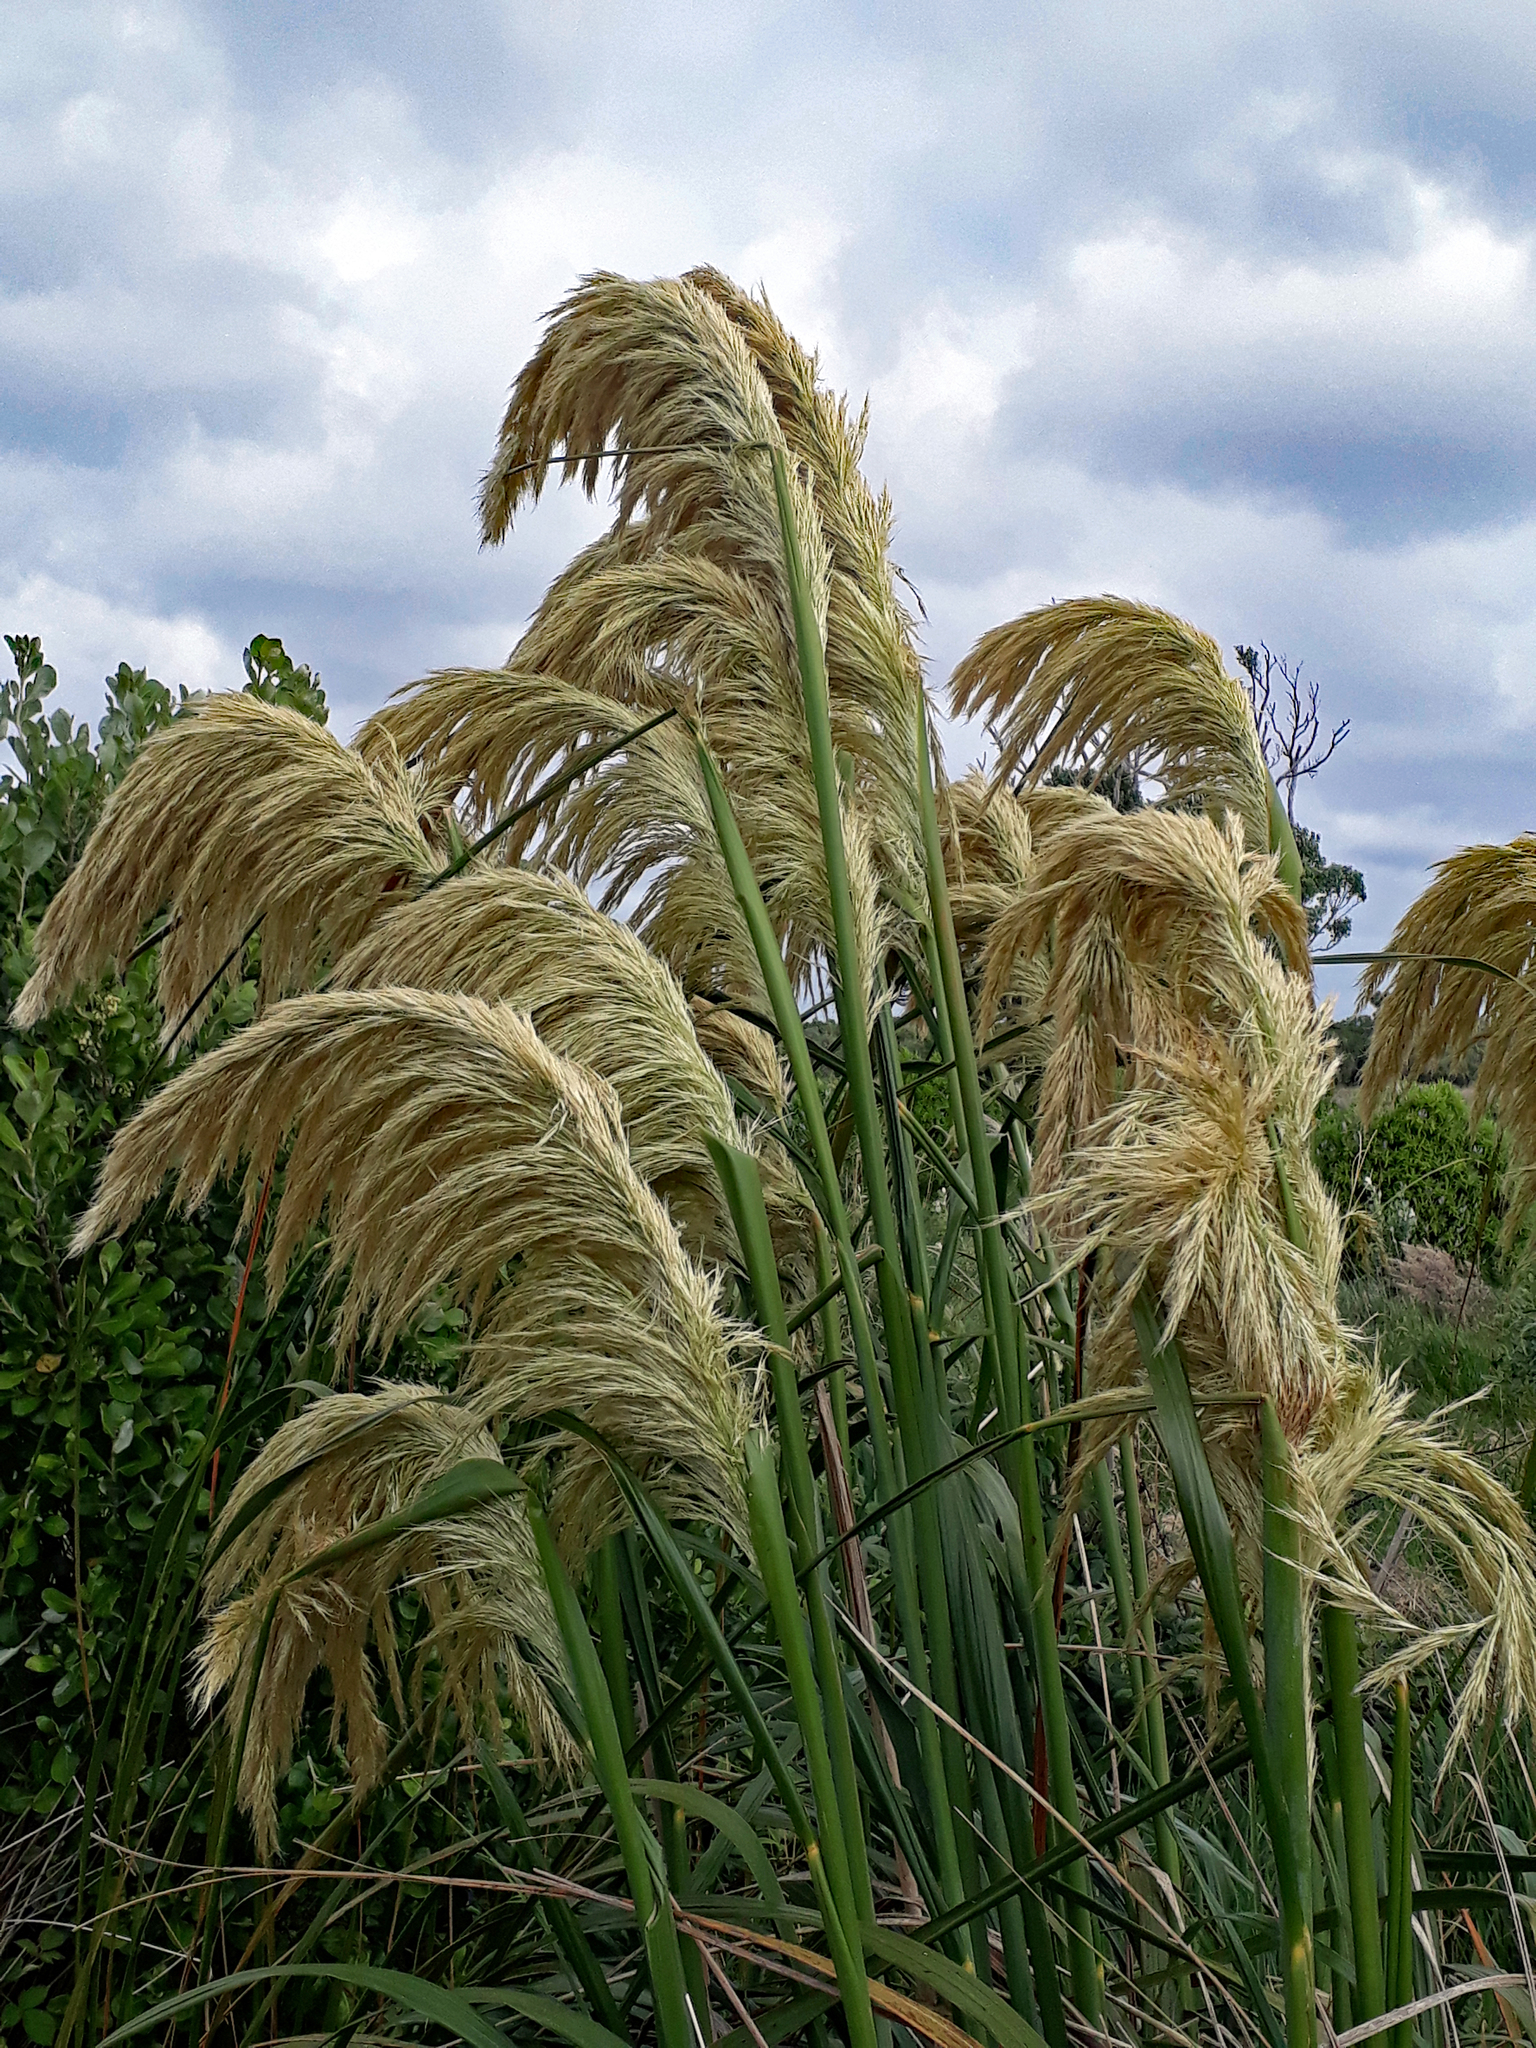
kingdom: Plantae
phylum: Tracheophyta
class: Liliopsida
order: Poales
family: Poaceae
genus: Austroderia
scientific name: Austroderia turbaria
